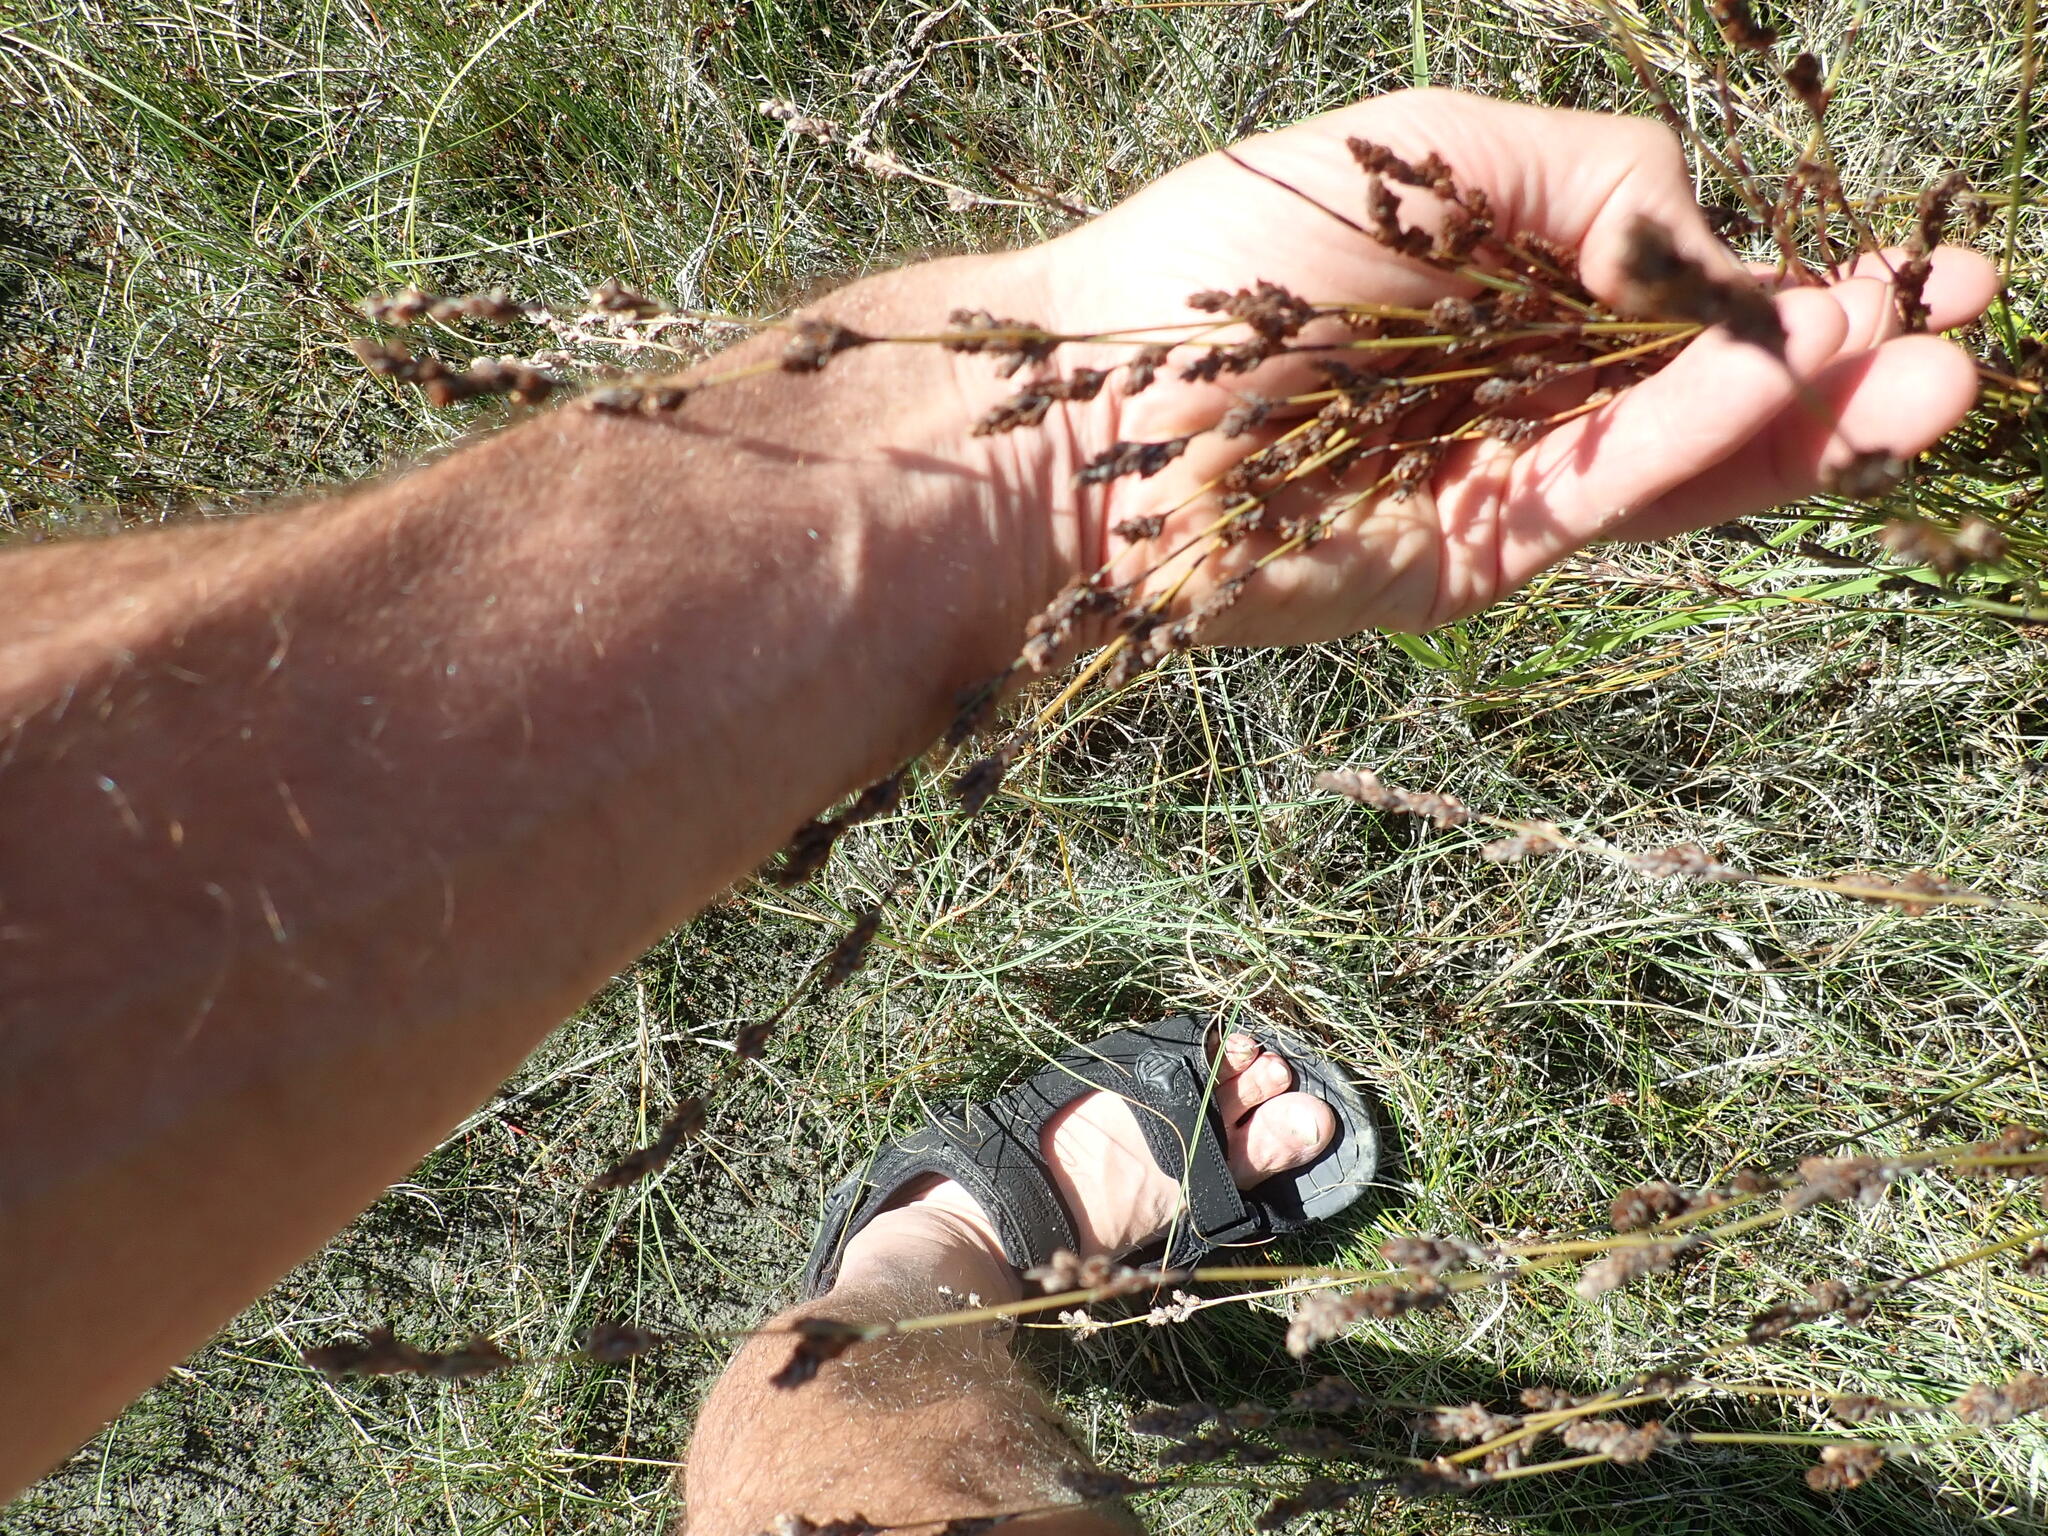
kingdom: Plantae
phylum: Tracheophyta
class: Liliopsida
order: Poales
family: Restionaceae
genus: Apodasmia
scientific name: Apodasmia similis
